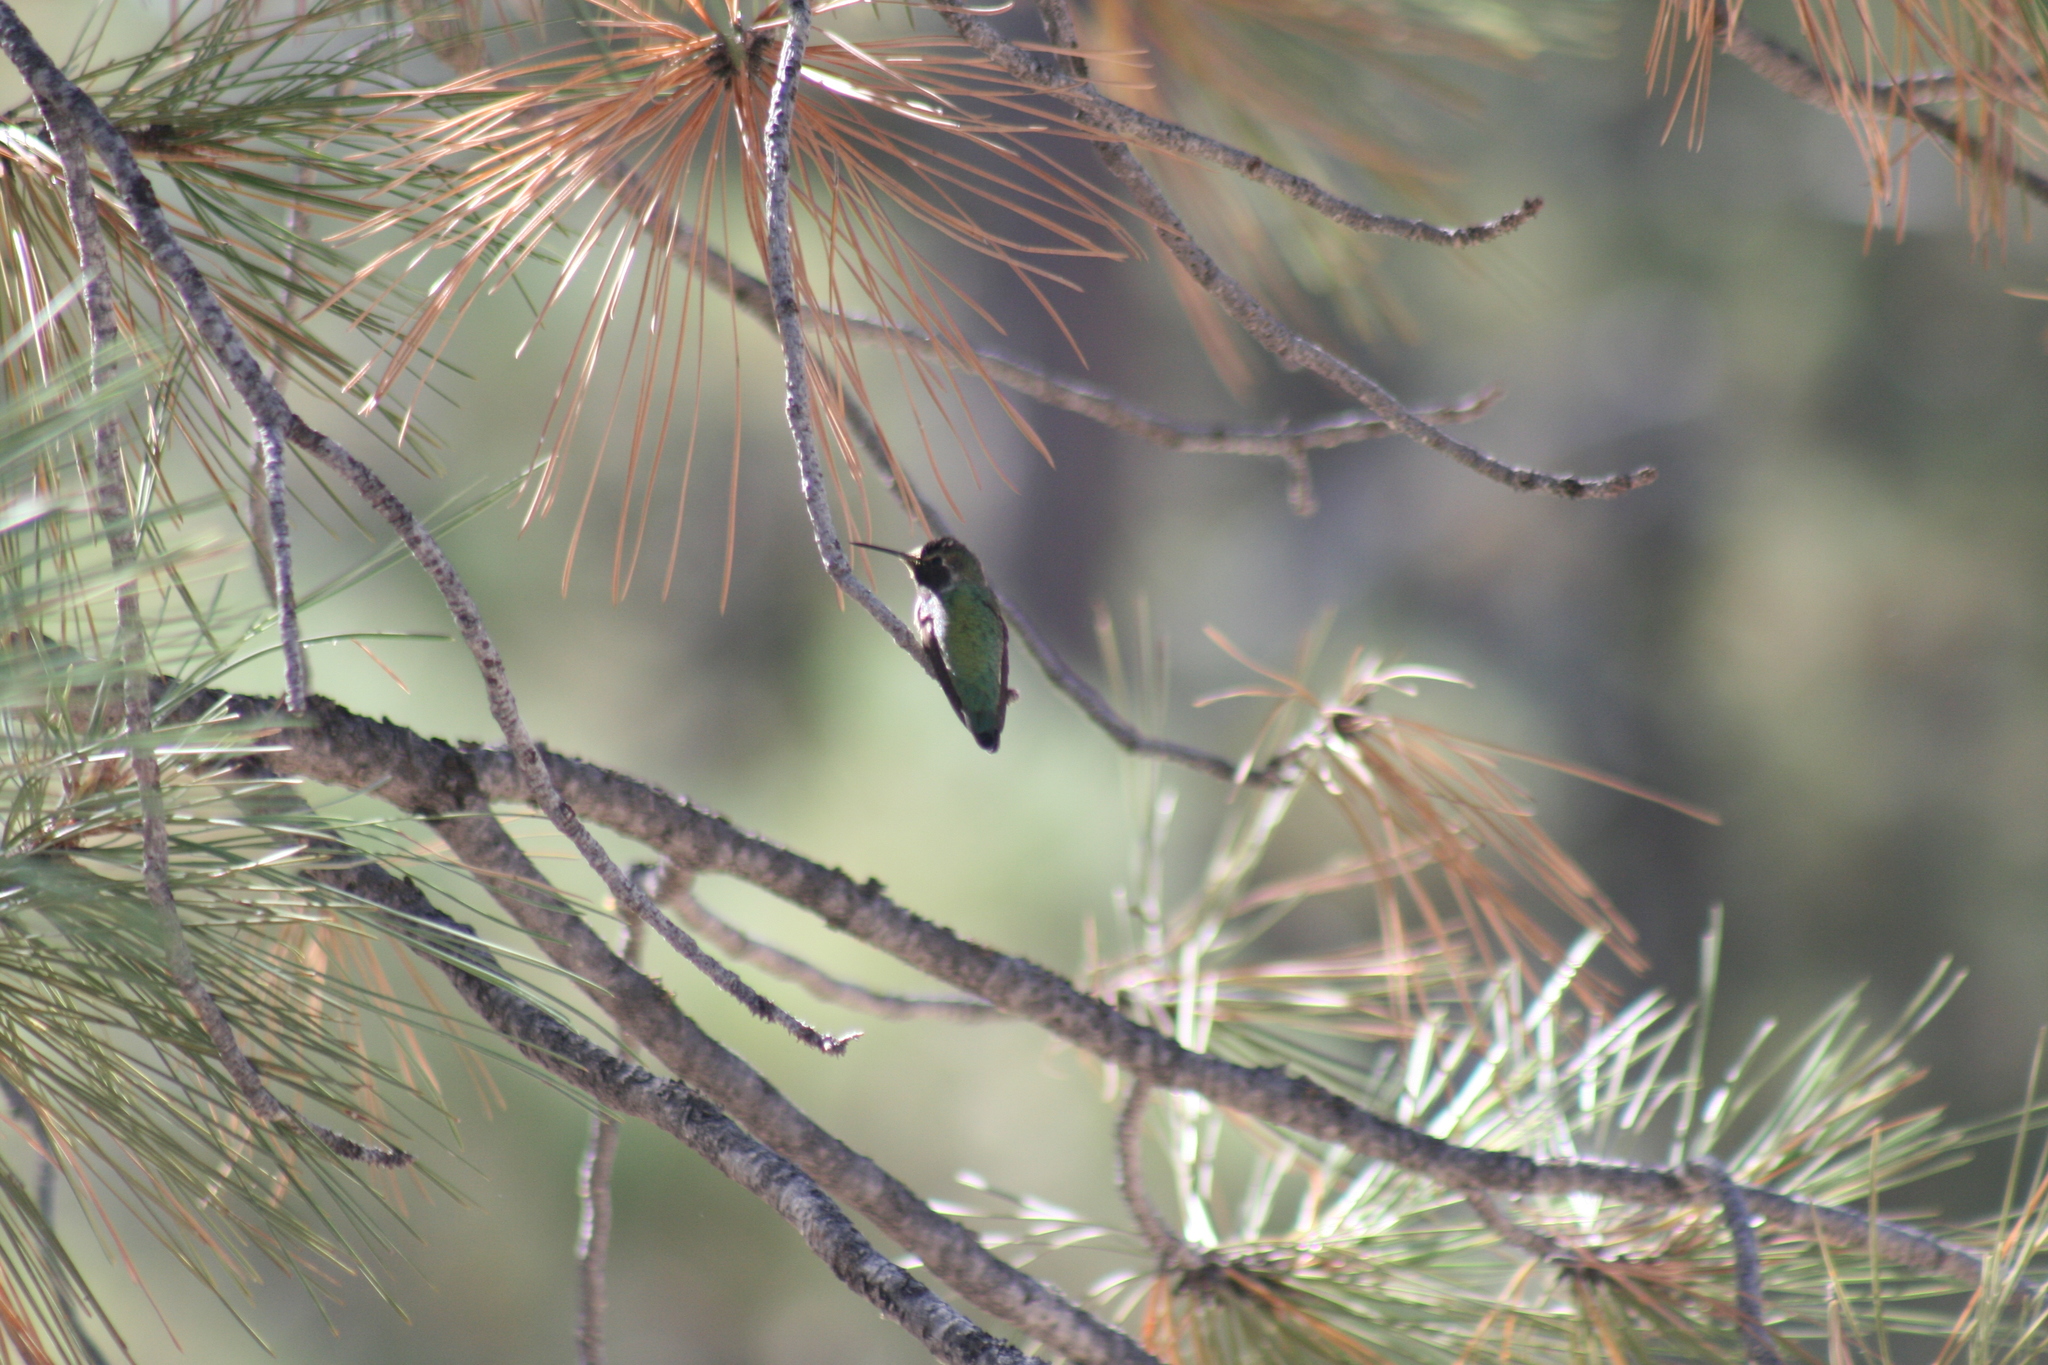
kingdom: Animalia
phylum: Chordata
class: Aves
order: Apodiformes
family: Trochilidae
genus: Calypte
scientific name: Calypte anna
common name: Anna's hummingbird
